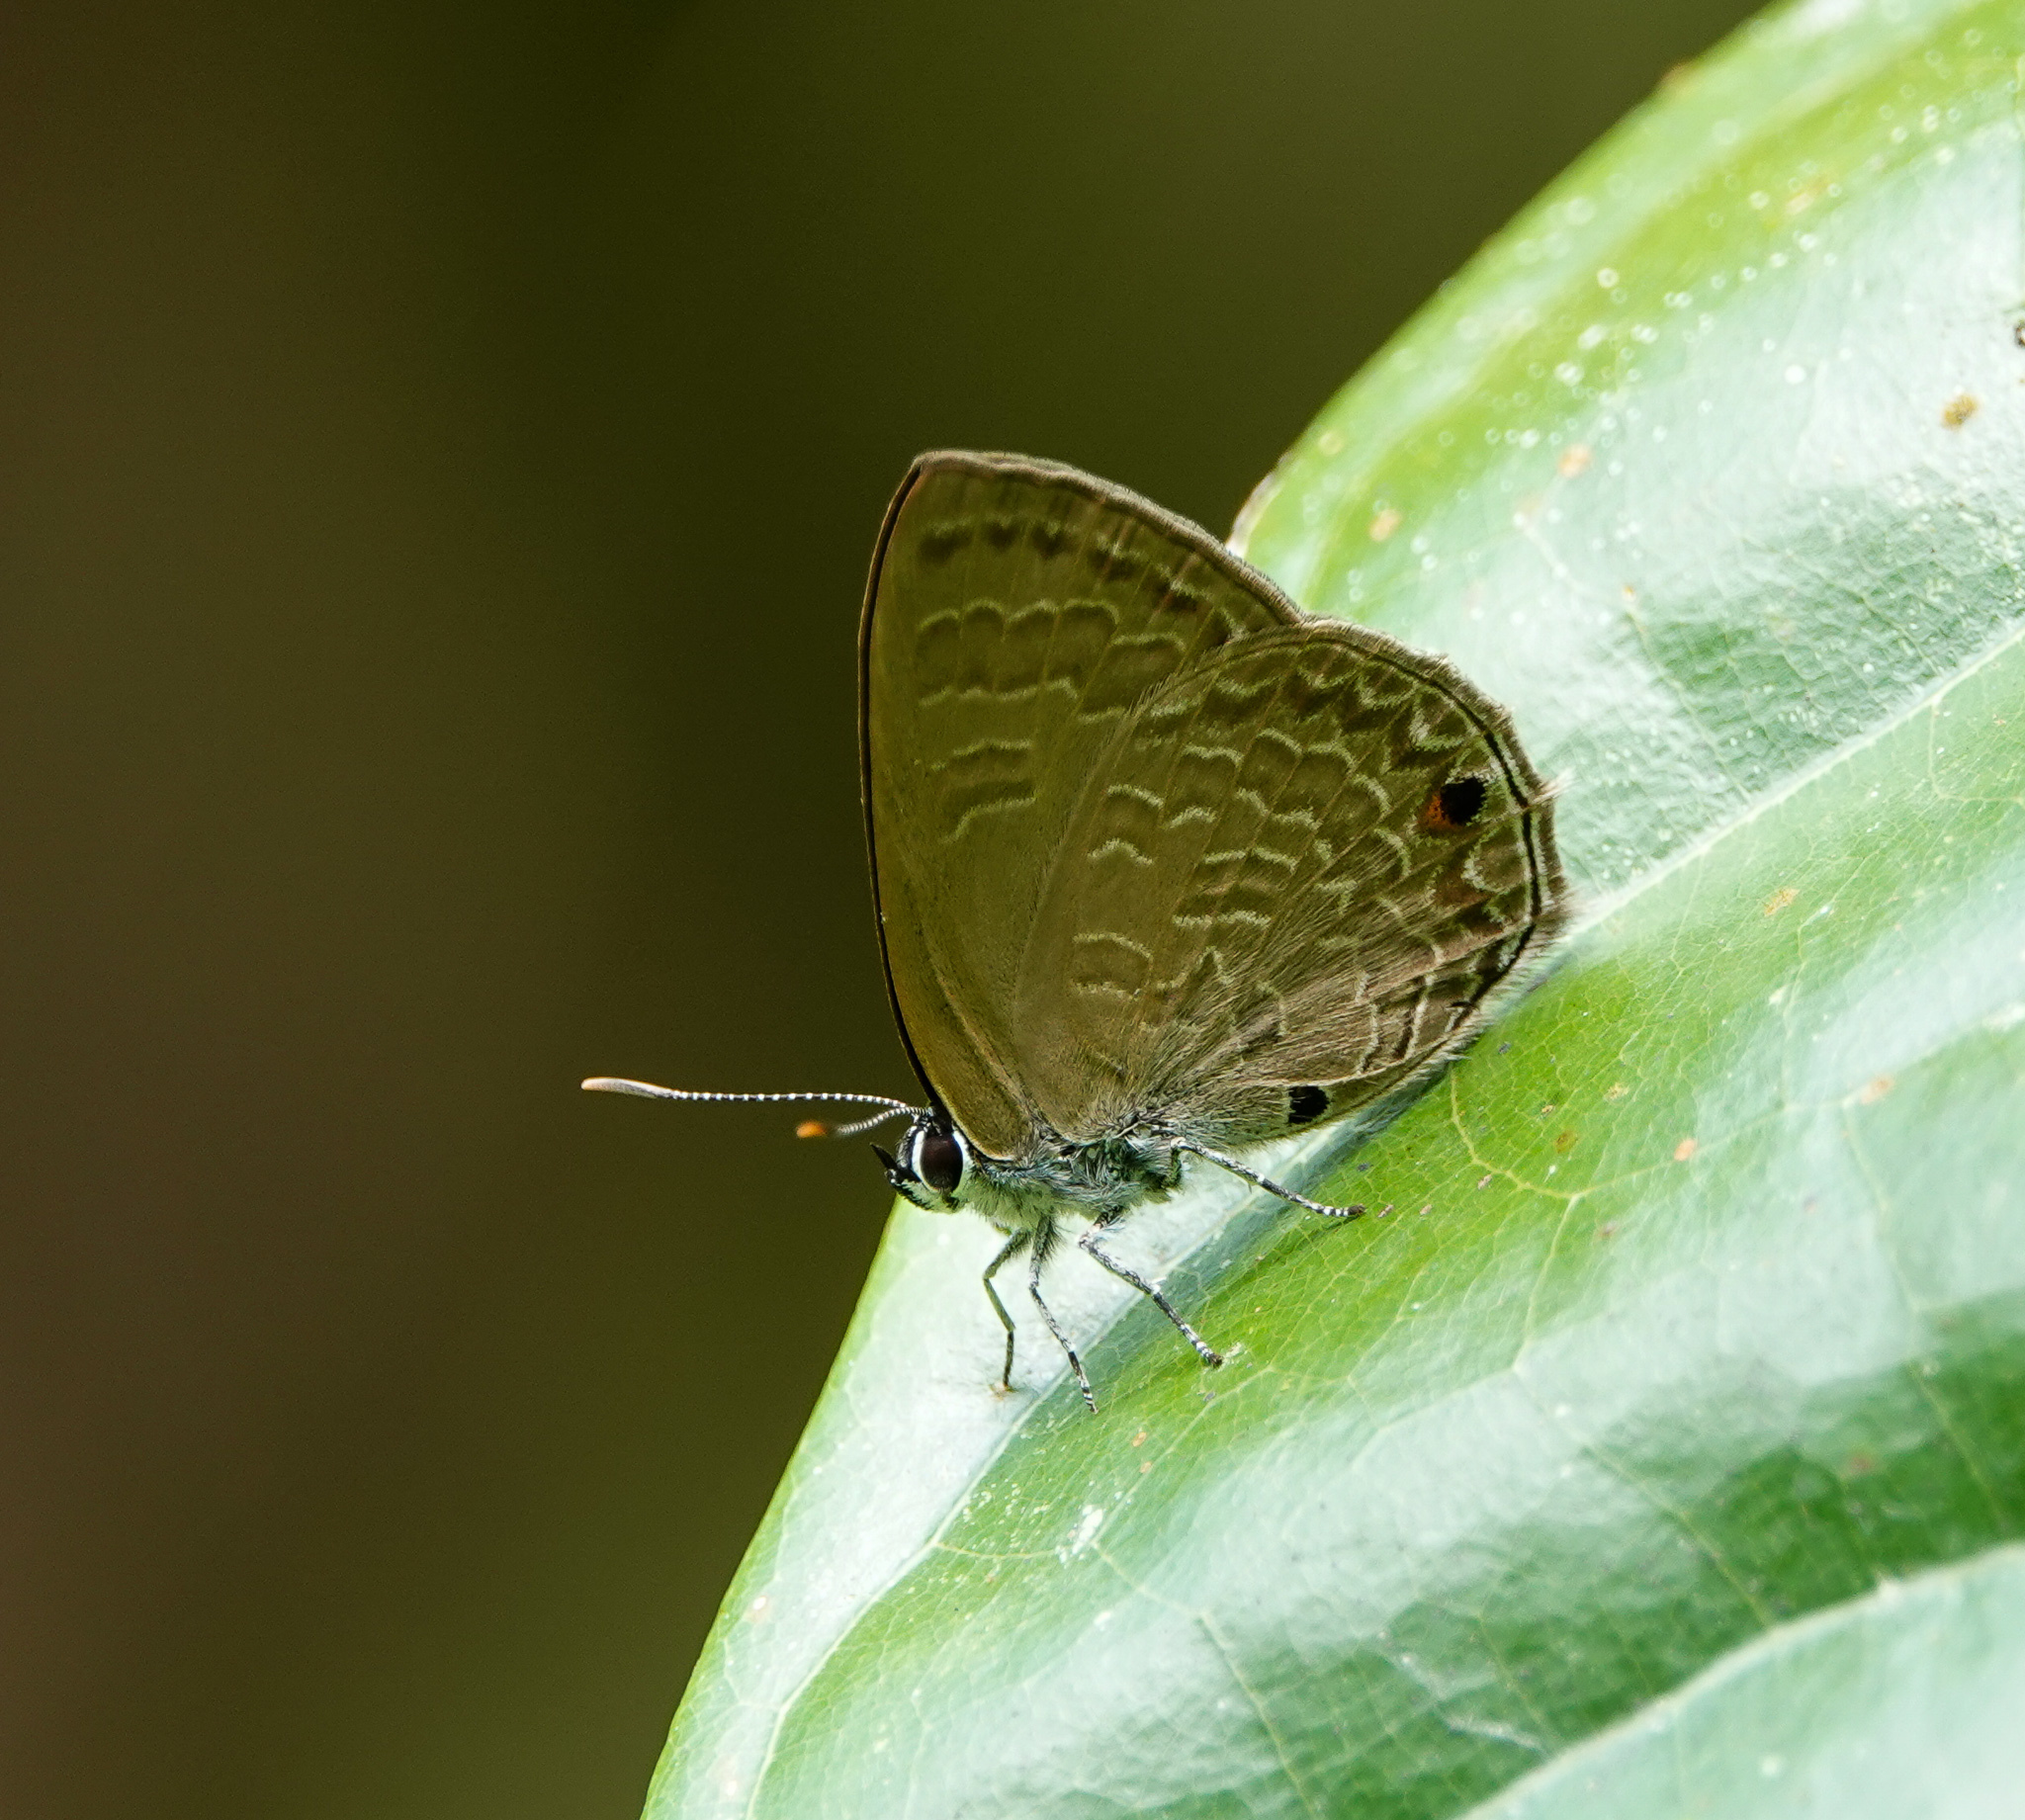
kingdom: Animalia
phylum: Arthropoda
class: Insecta
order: Lepidoptera
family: Lycaenidae
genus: Anthene
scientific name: Anthene emolus
